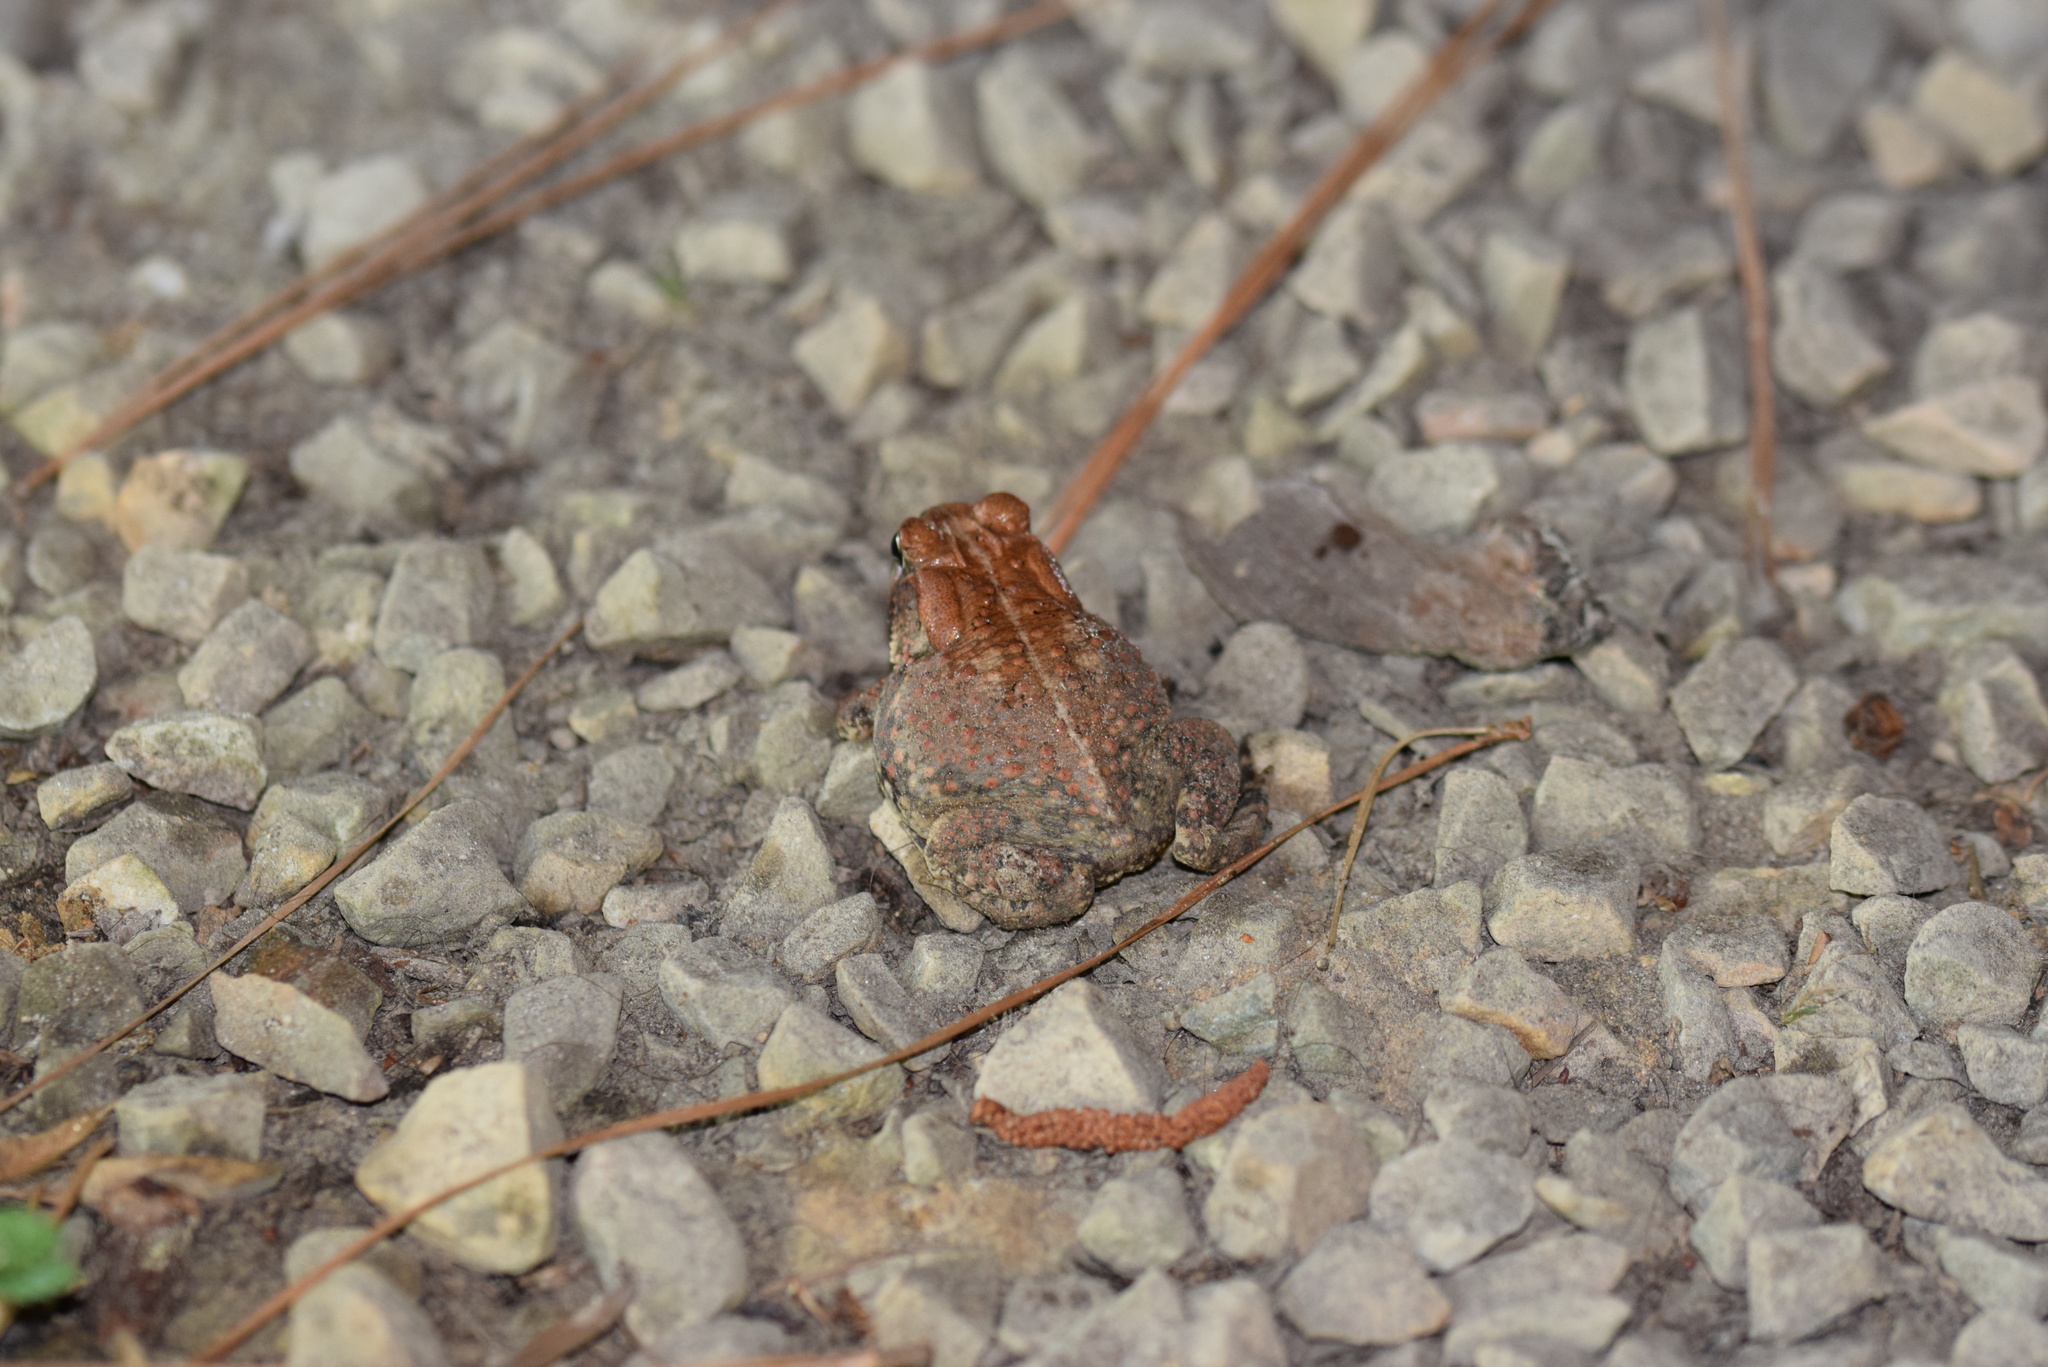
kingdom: Animalia
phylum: Chordata
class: Amphibia
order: Anura
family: Bufonidae
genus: Anaxyrus
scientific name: Anaxyrus fowleri
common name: Fowler's toad
